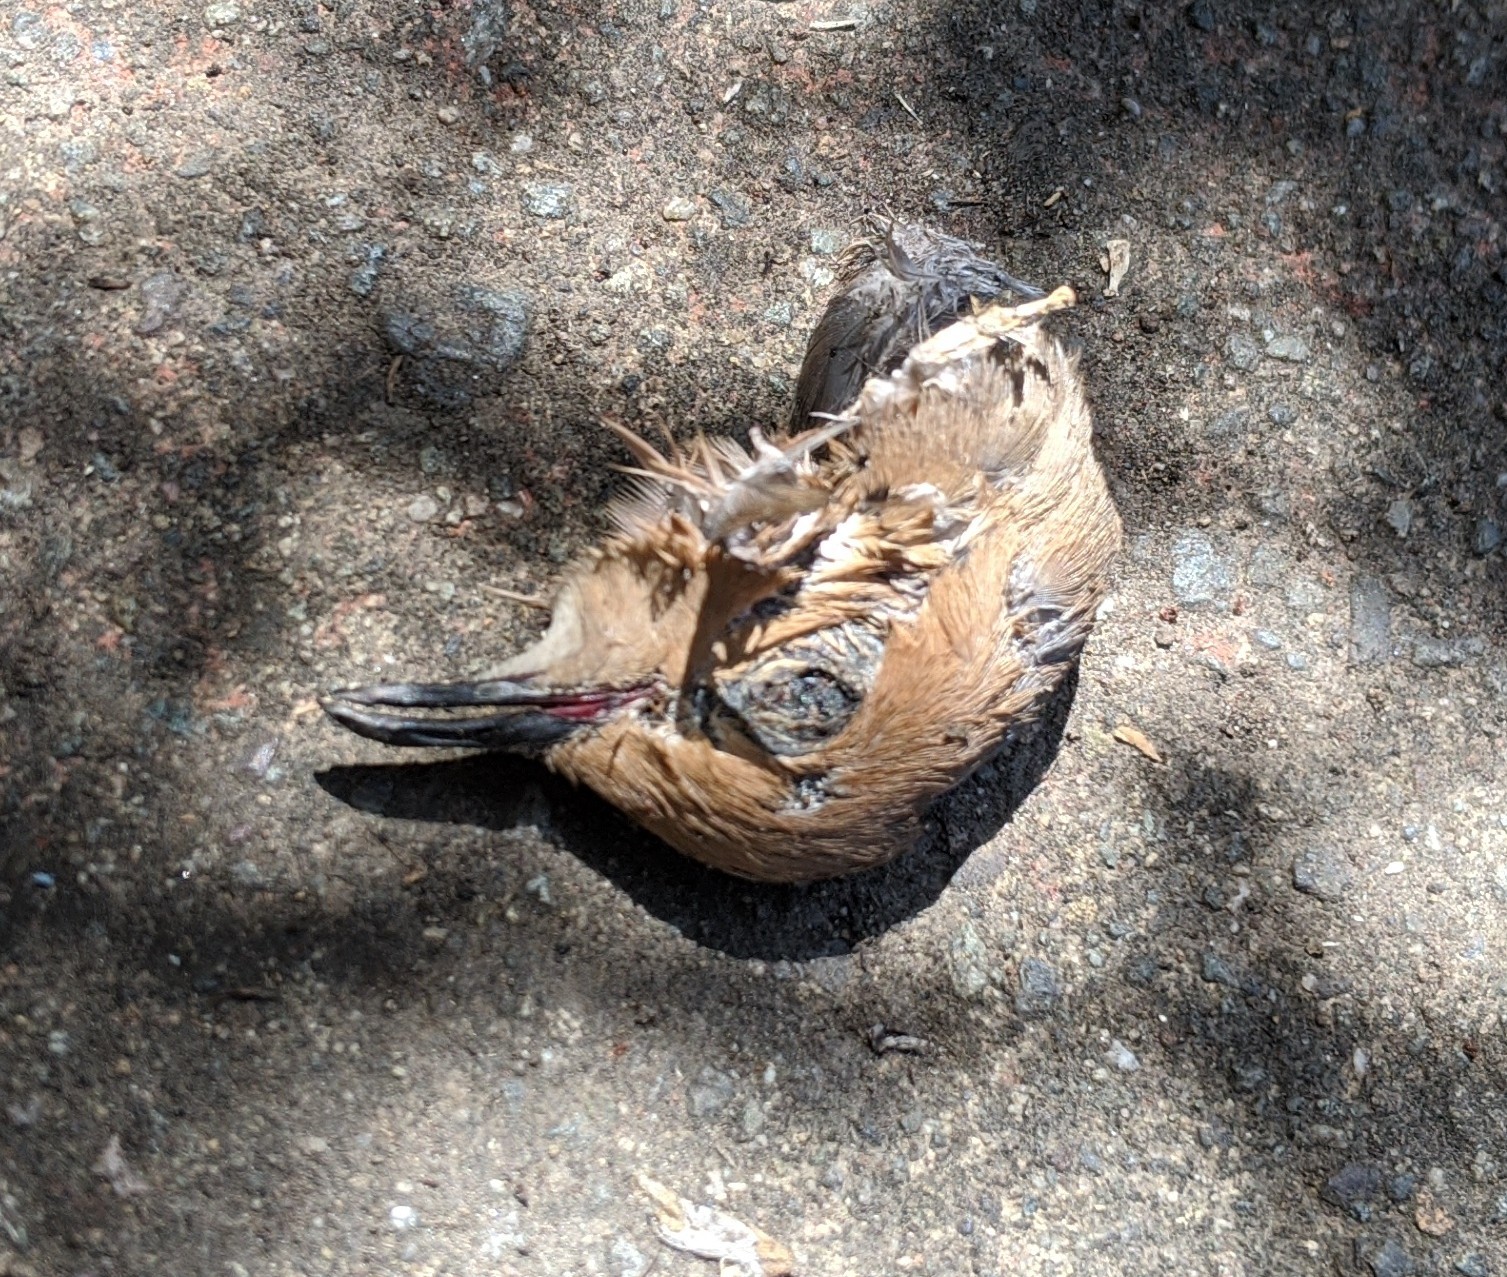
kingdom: Animalia
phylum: Chordata
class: Aves
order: Columbiformes
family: Columbidae
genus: Zenaida
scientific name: Zenaida macroura
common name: Mourning dove
